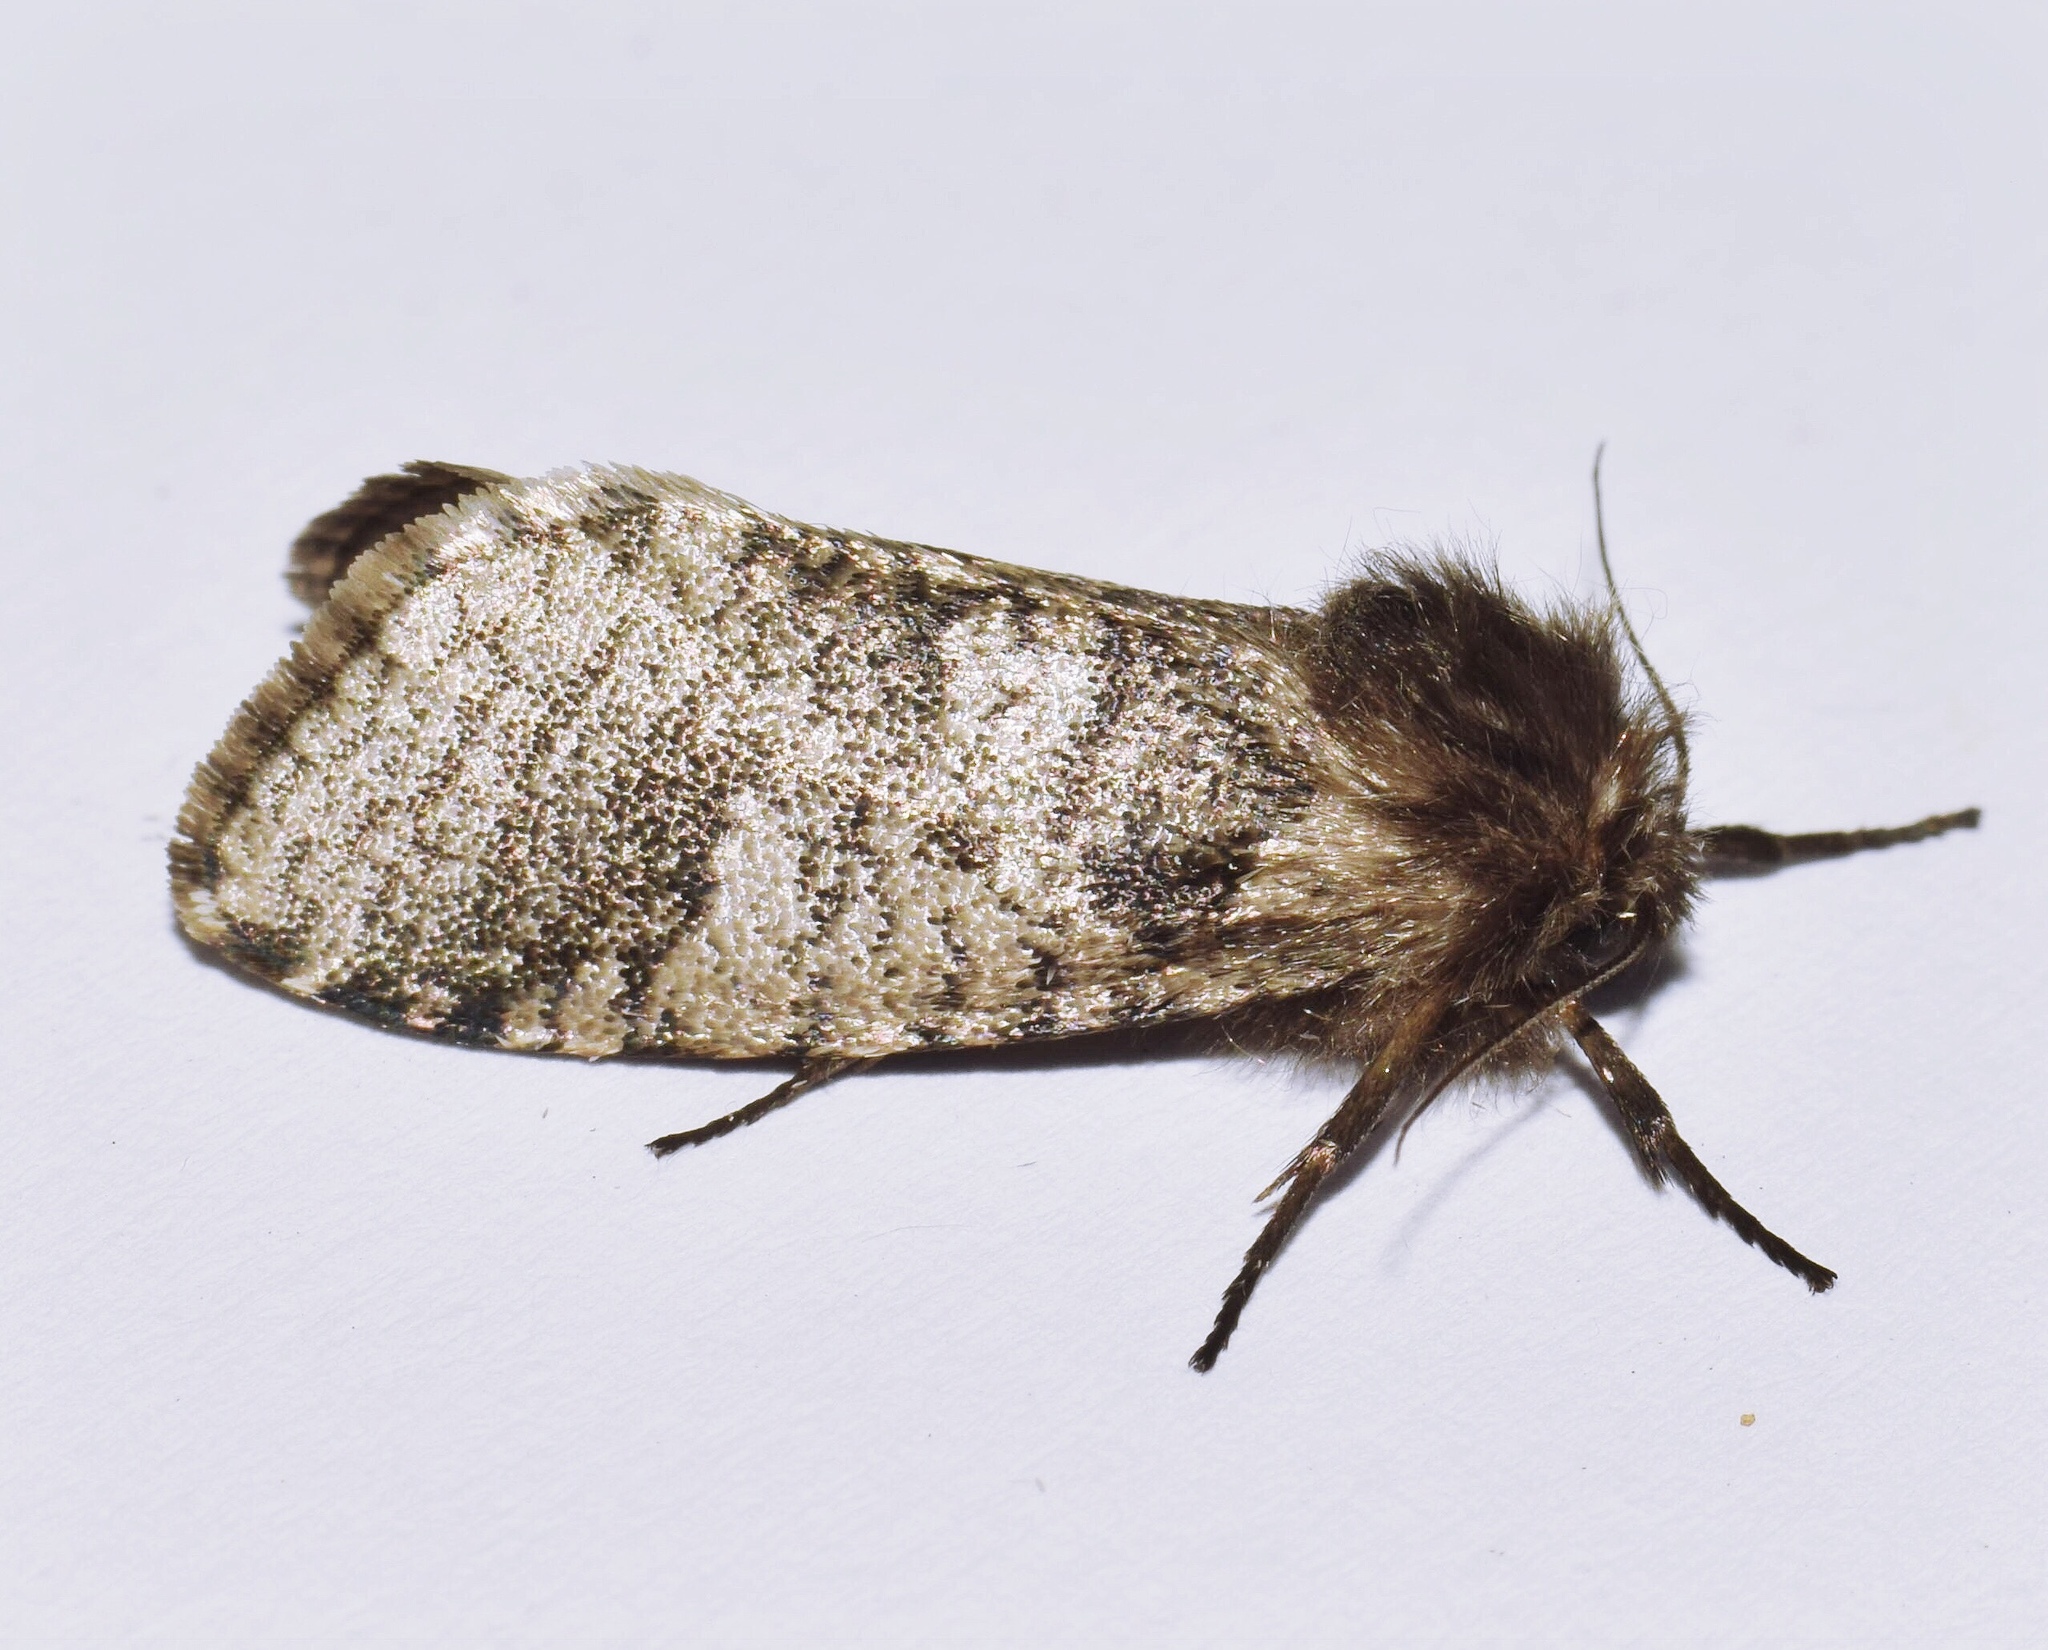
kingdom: Animalia
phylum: Arthropoda
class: Insecta
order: Lepidoptera
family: Psychidae
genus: Gymnelema
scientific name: Gymnelema vinctus
